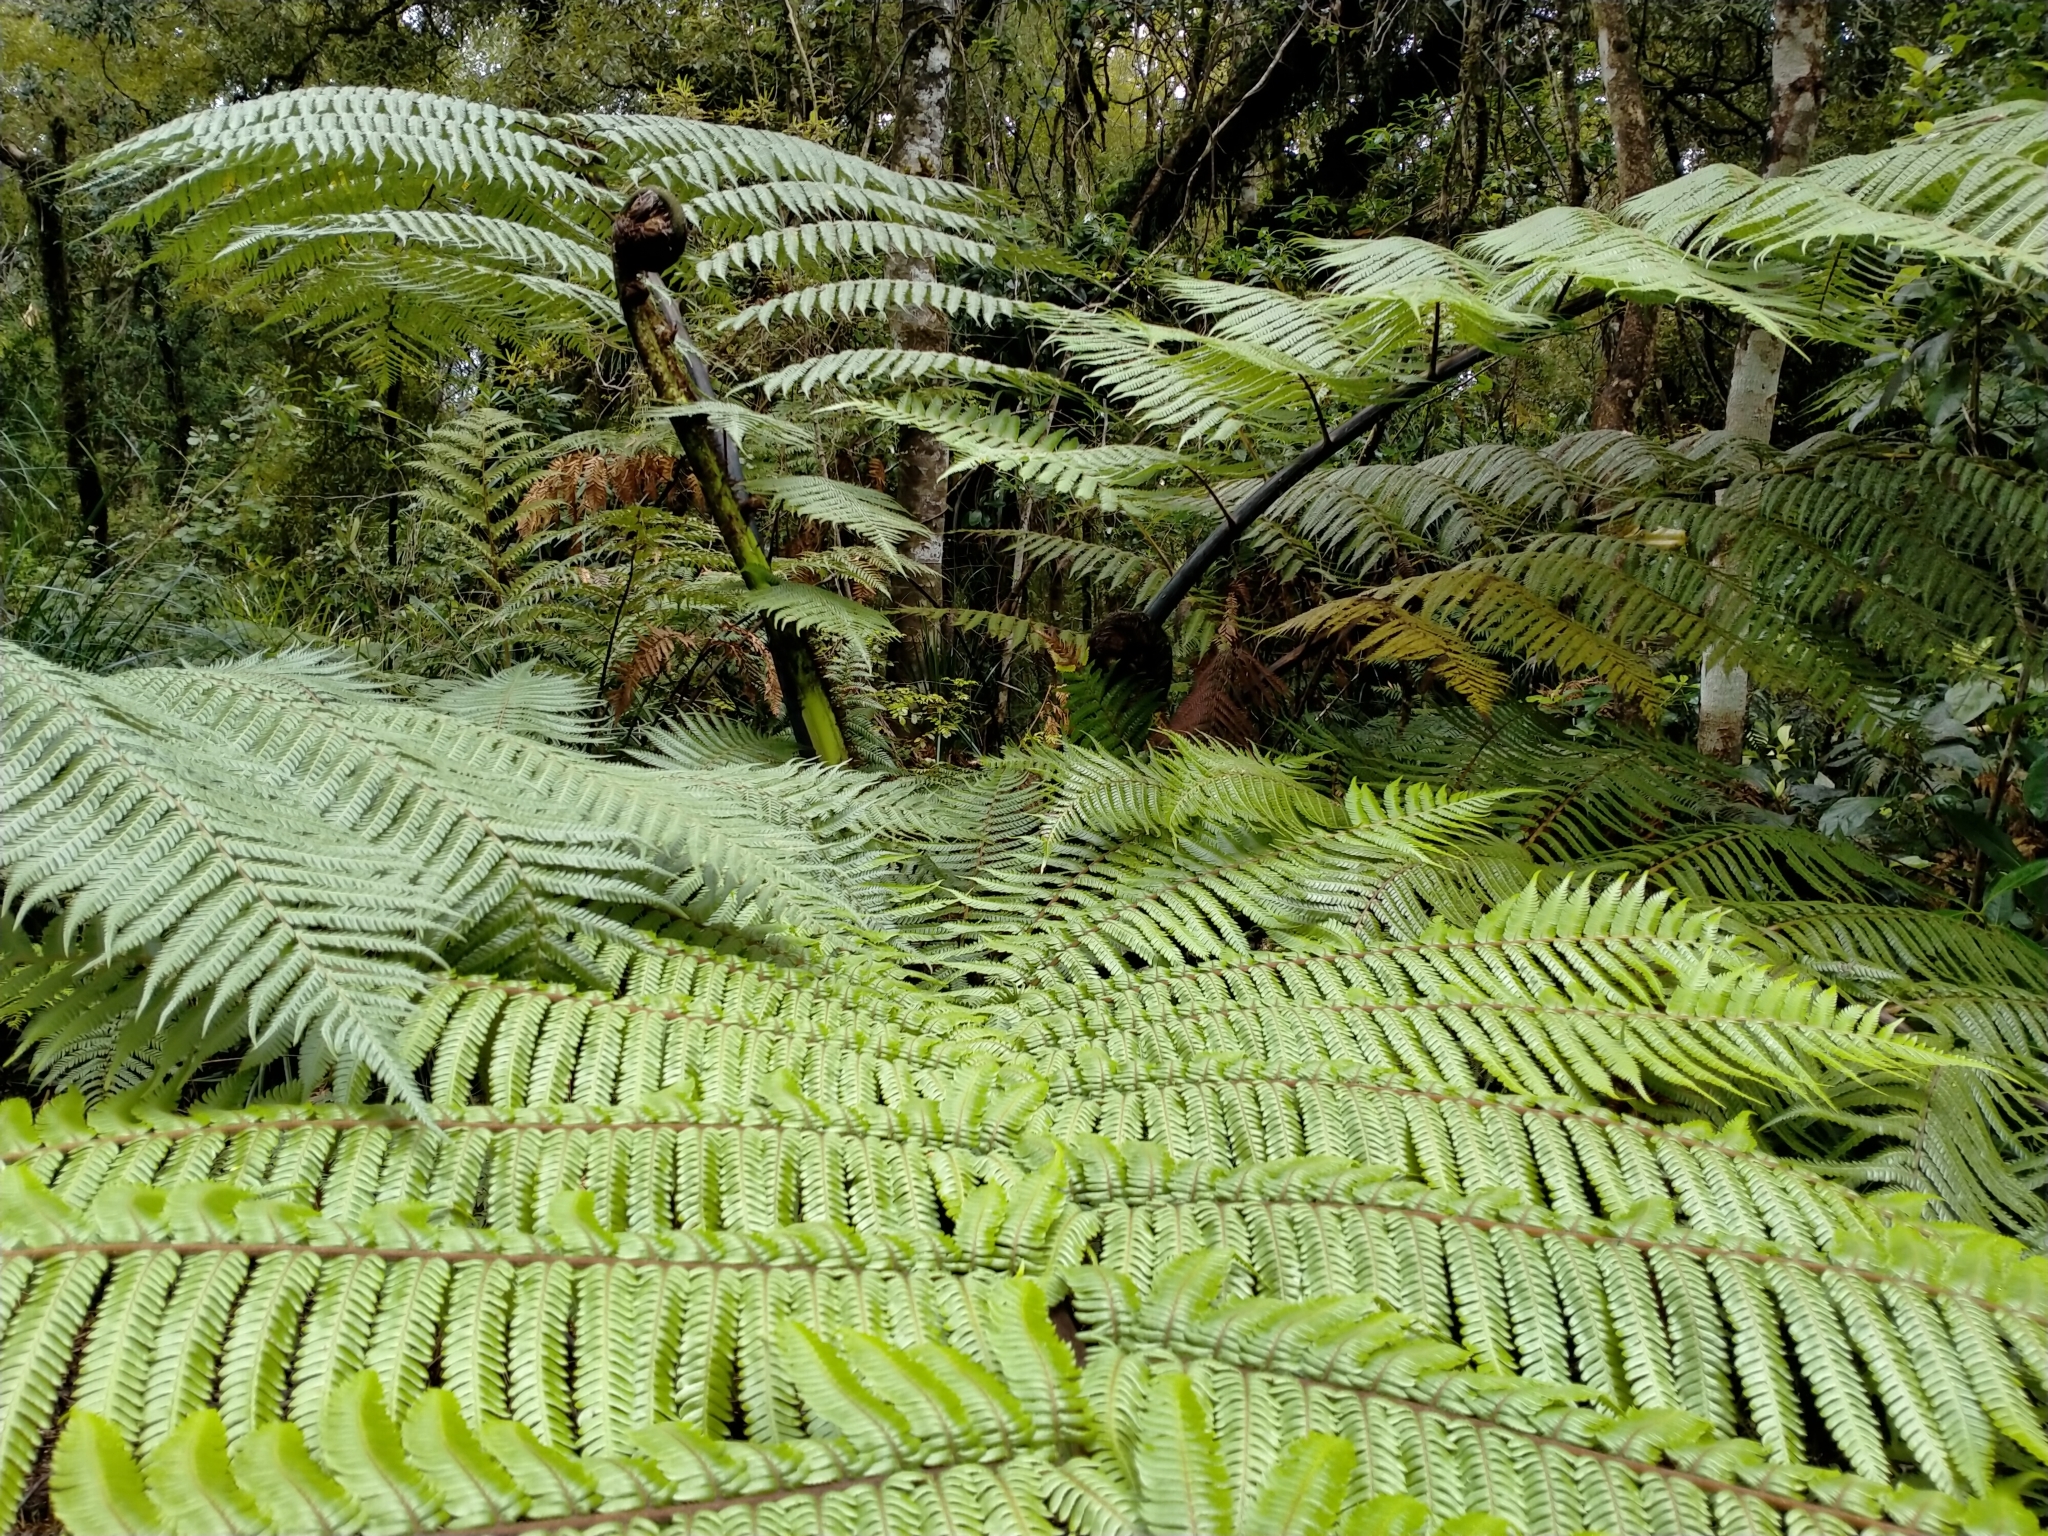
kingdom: Plantae
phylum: Tracheophyta
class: Polypodiopsida
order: Cyatheales
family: Cyatheaceae
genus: Sphaeropteris
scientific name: Sphaeropteris medullaris
